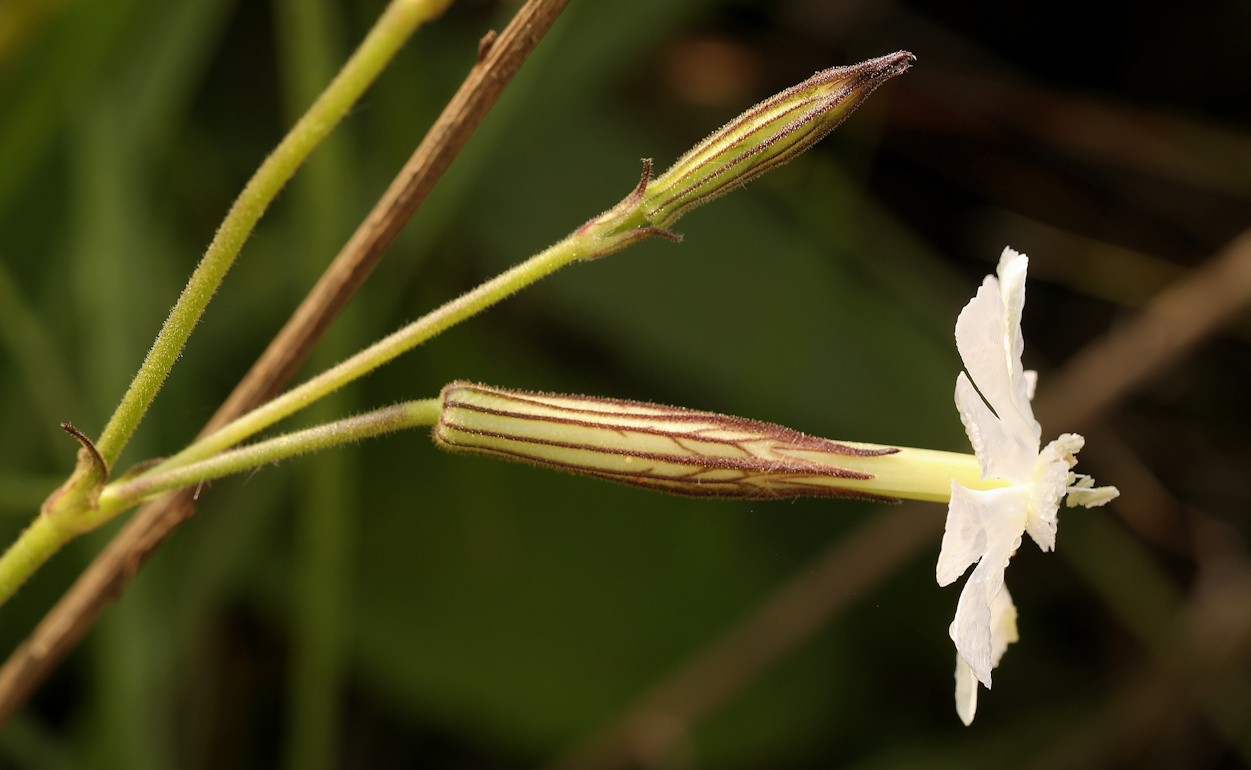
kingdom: Plantae
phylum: Tracheophyta
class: Magnoliopsida
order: Caryophyllales
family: Caryophyllaceae
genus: Silene
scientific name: Silene undulata
